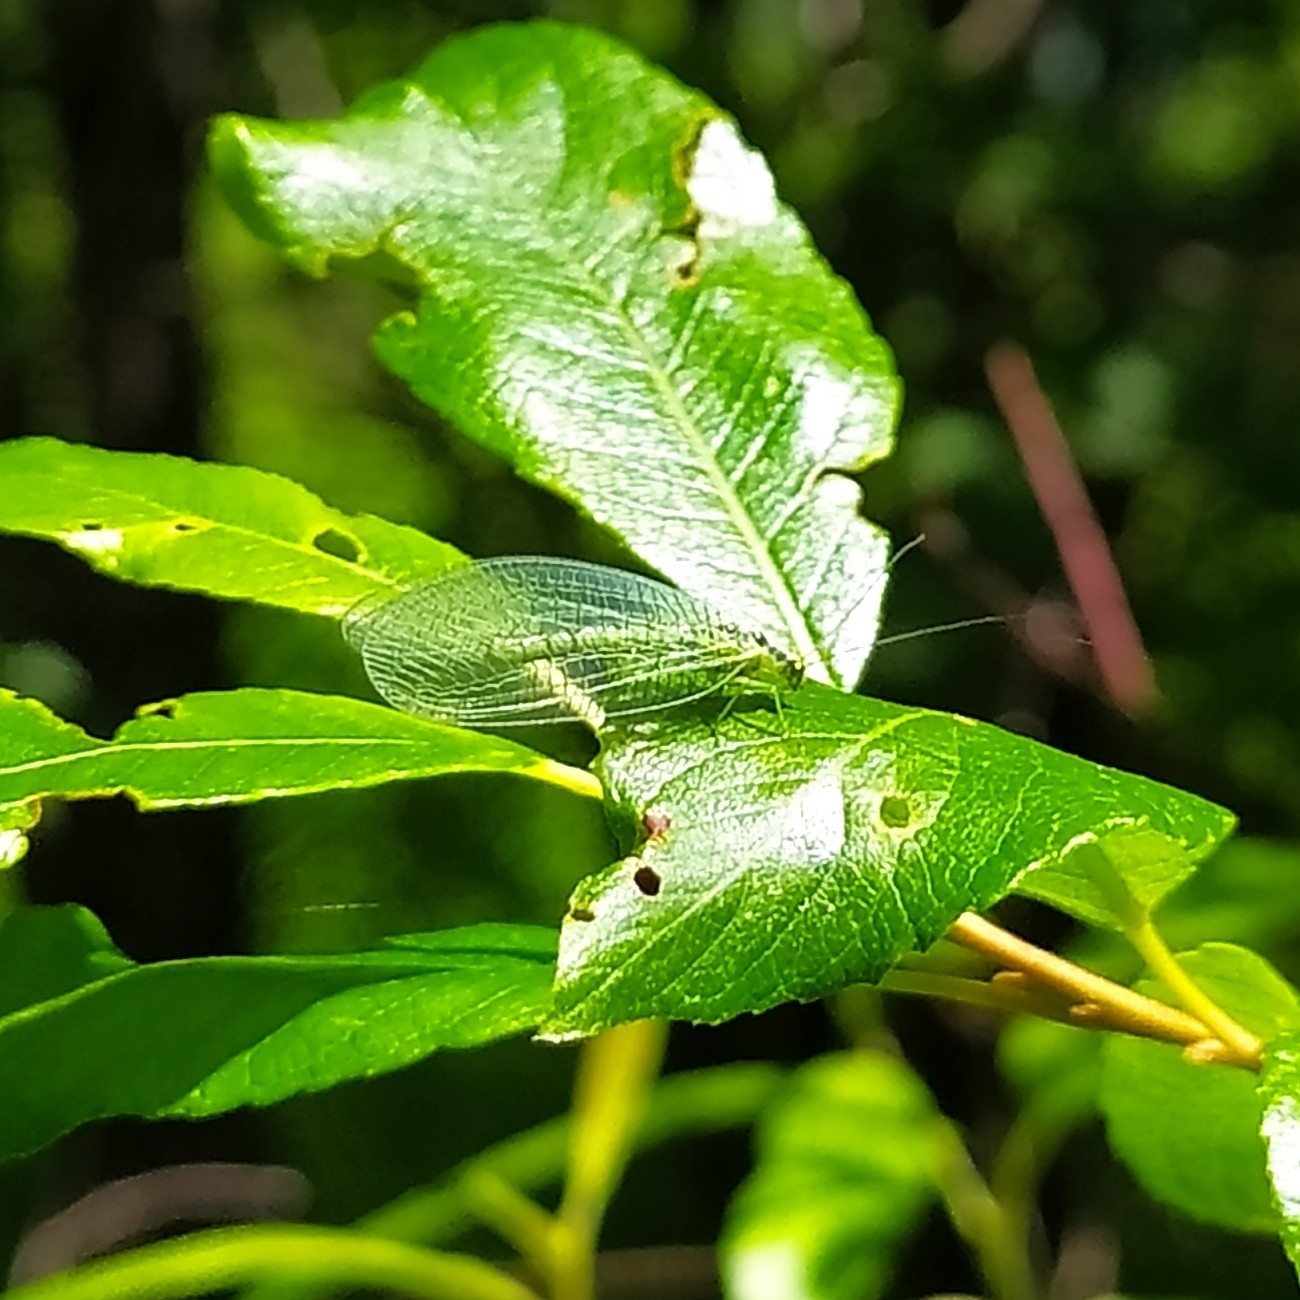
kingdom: Animalia
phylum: Arthropoda
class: Insecta
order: Neuroptera
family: Chrysopidae
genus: Chrysopa
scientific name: Chrysopa perla
